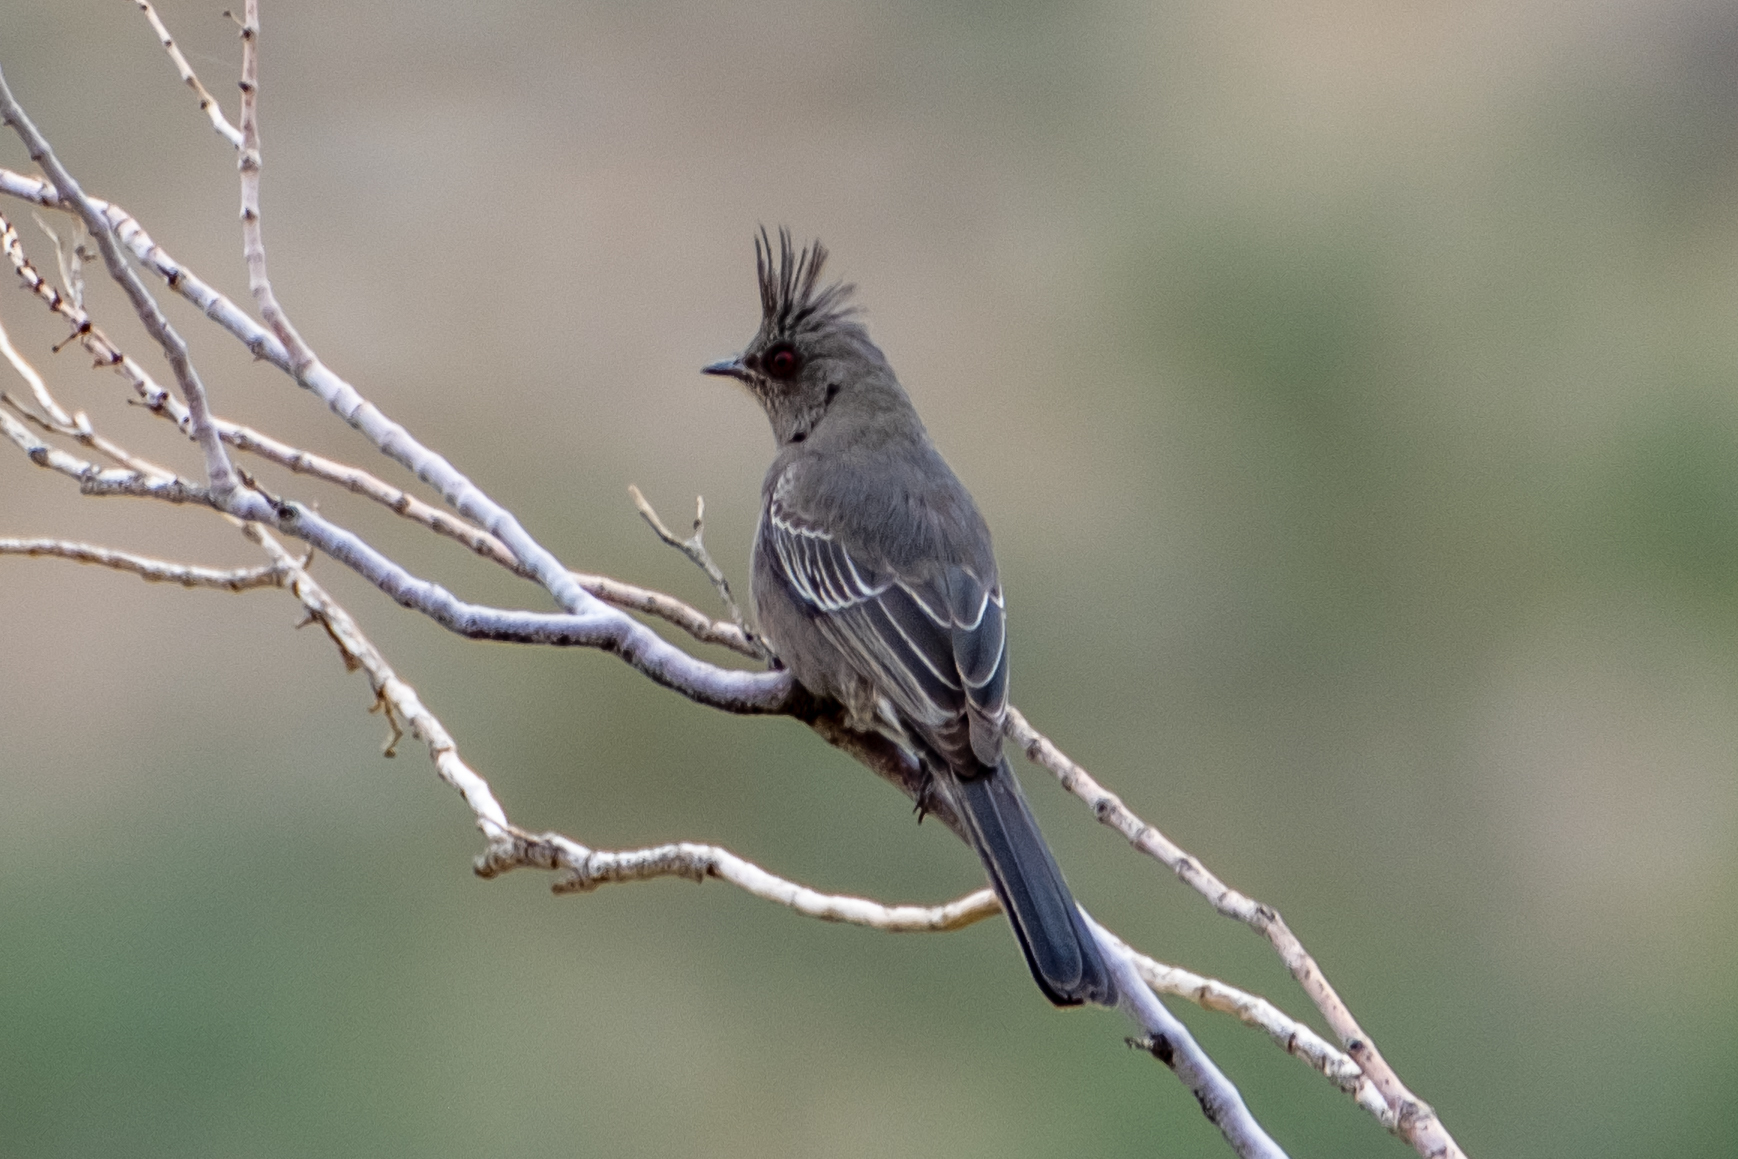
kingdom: Animalia
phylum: Chordata
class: Aves
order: Passeriformes
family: Ptilogonatidae
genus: Phainopepla
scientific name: Phainopepla nitens
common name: Phainopepla
